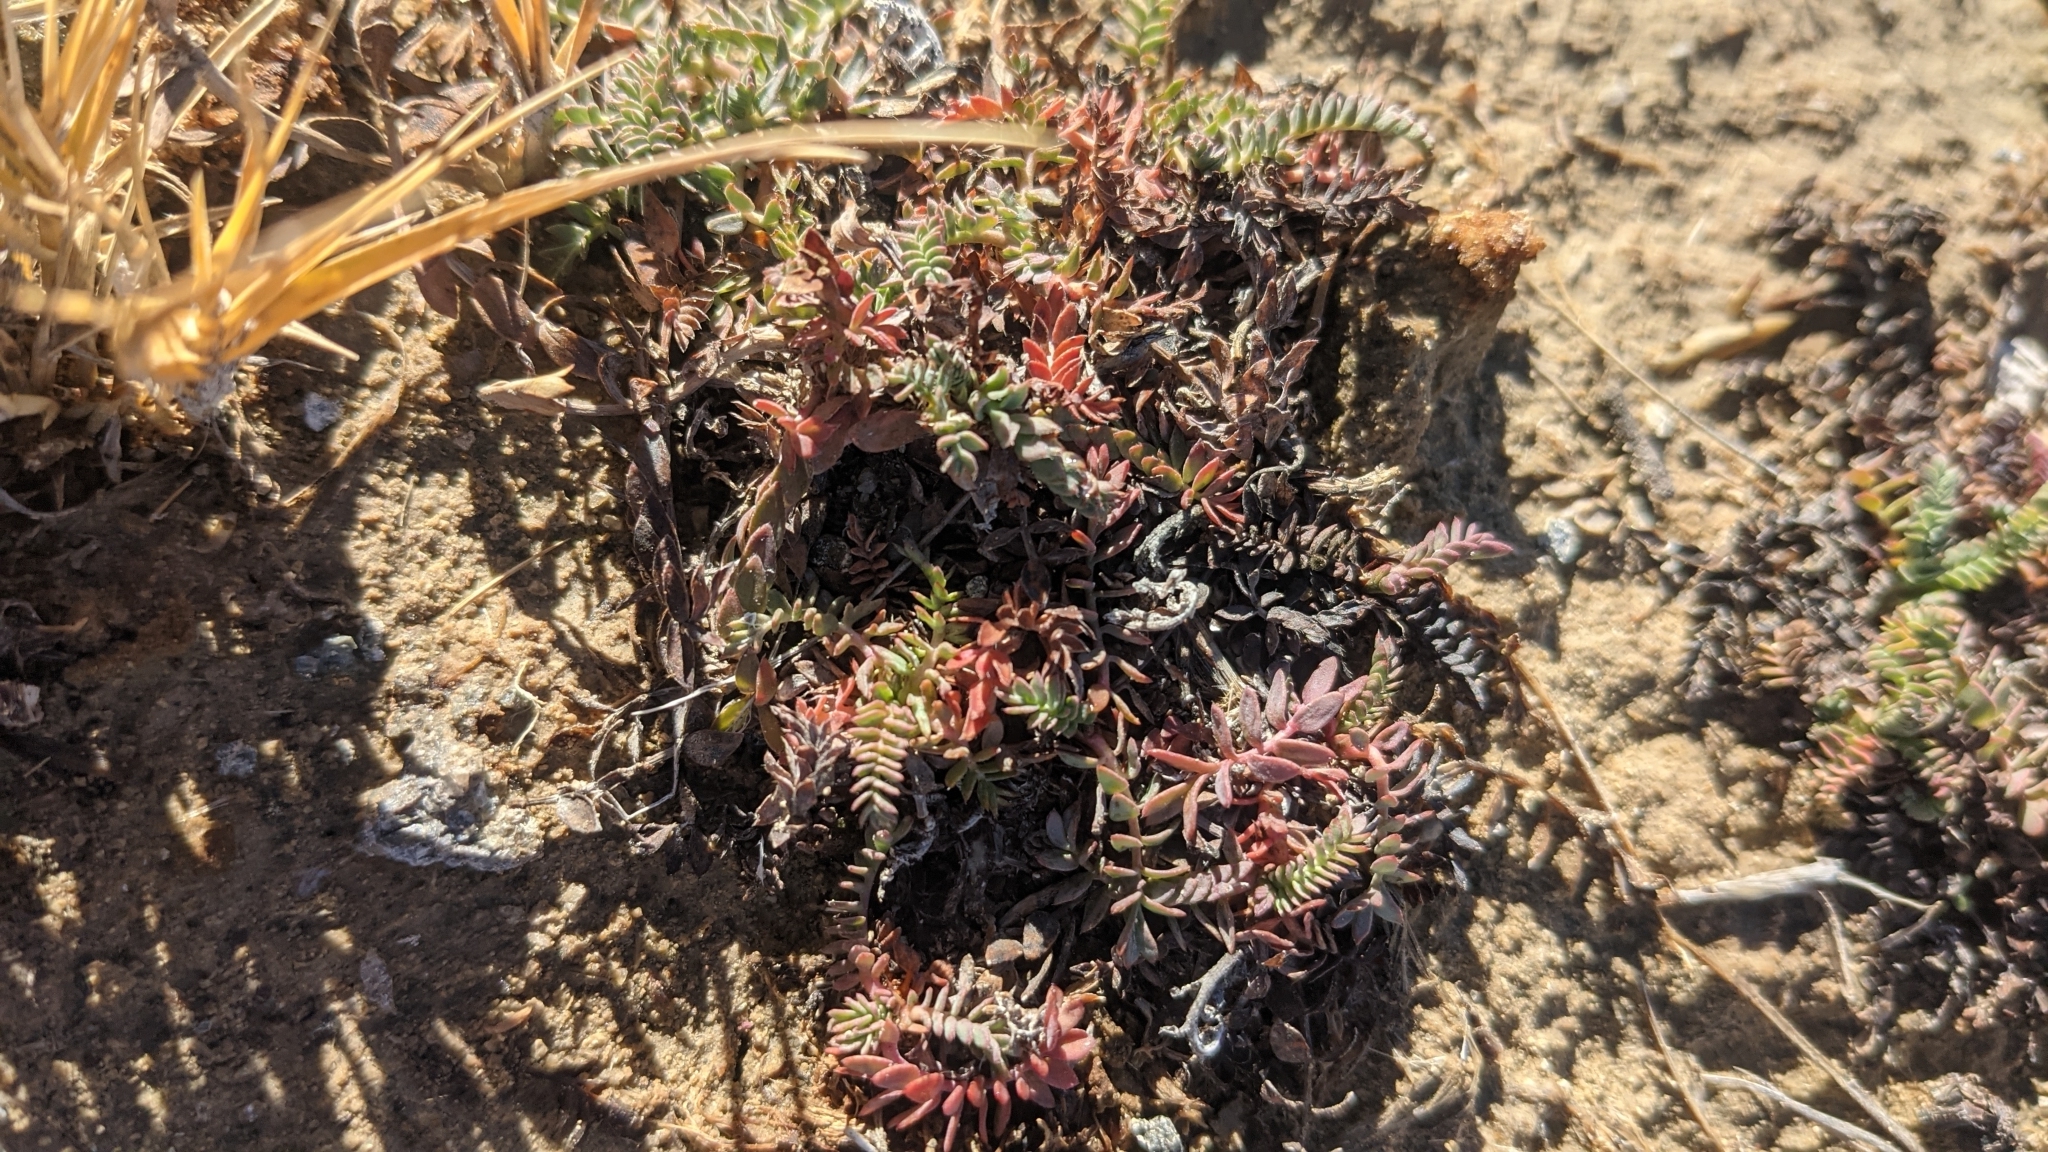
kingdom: Plantae
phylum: Tracheophyta
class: Magnoliopsida
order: Rosales
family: Rosaceae
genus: Potentilla
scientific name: Potentilla basaltica
